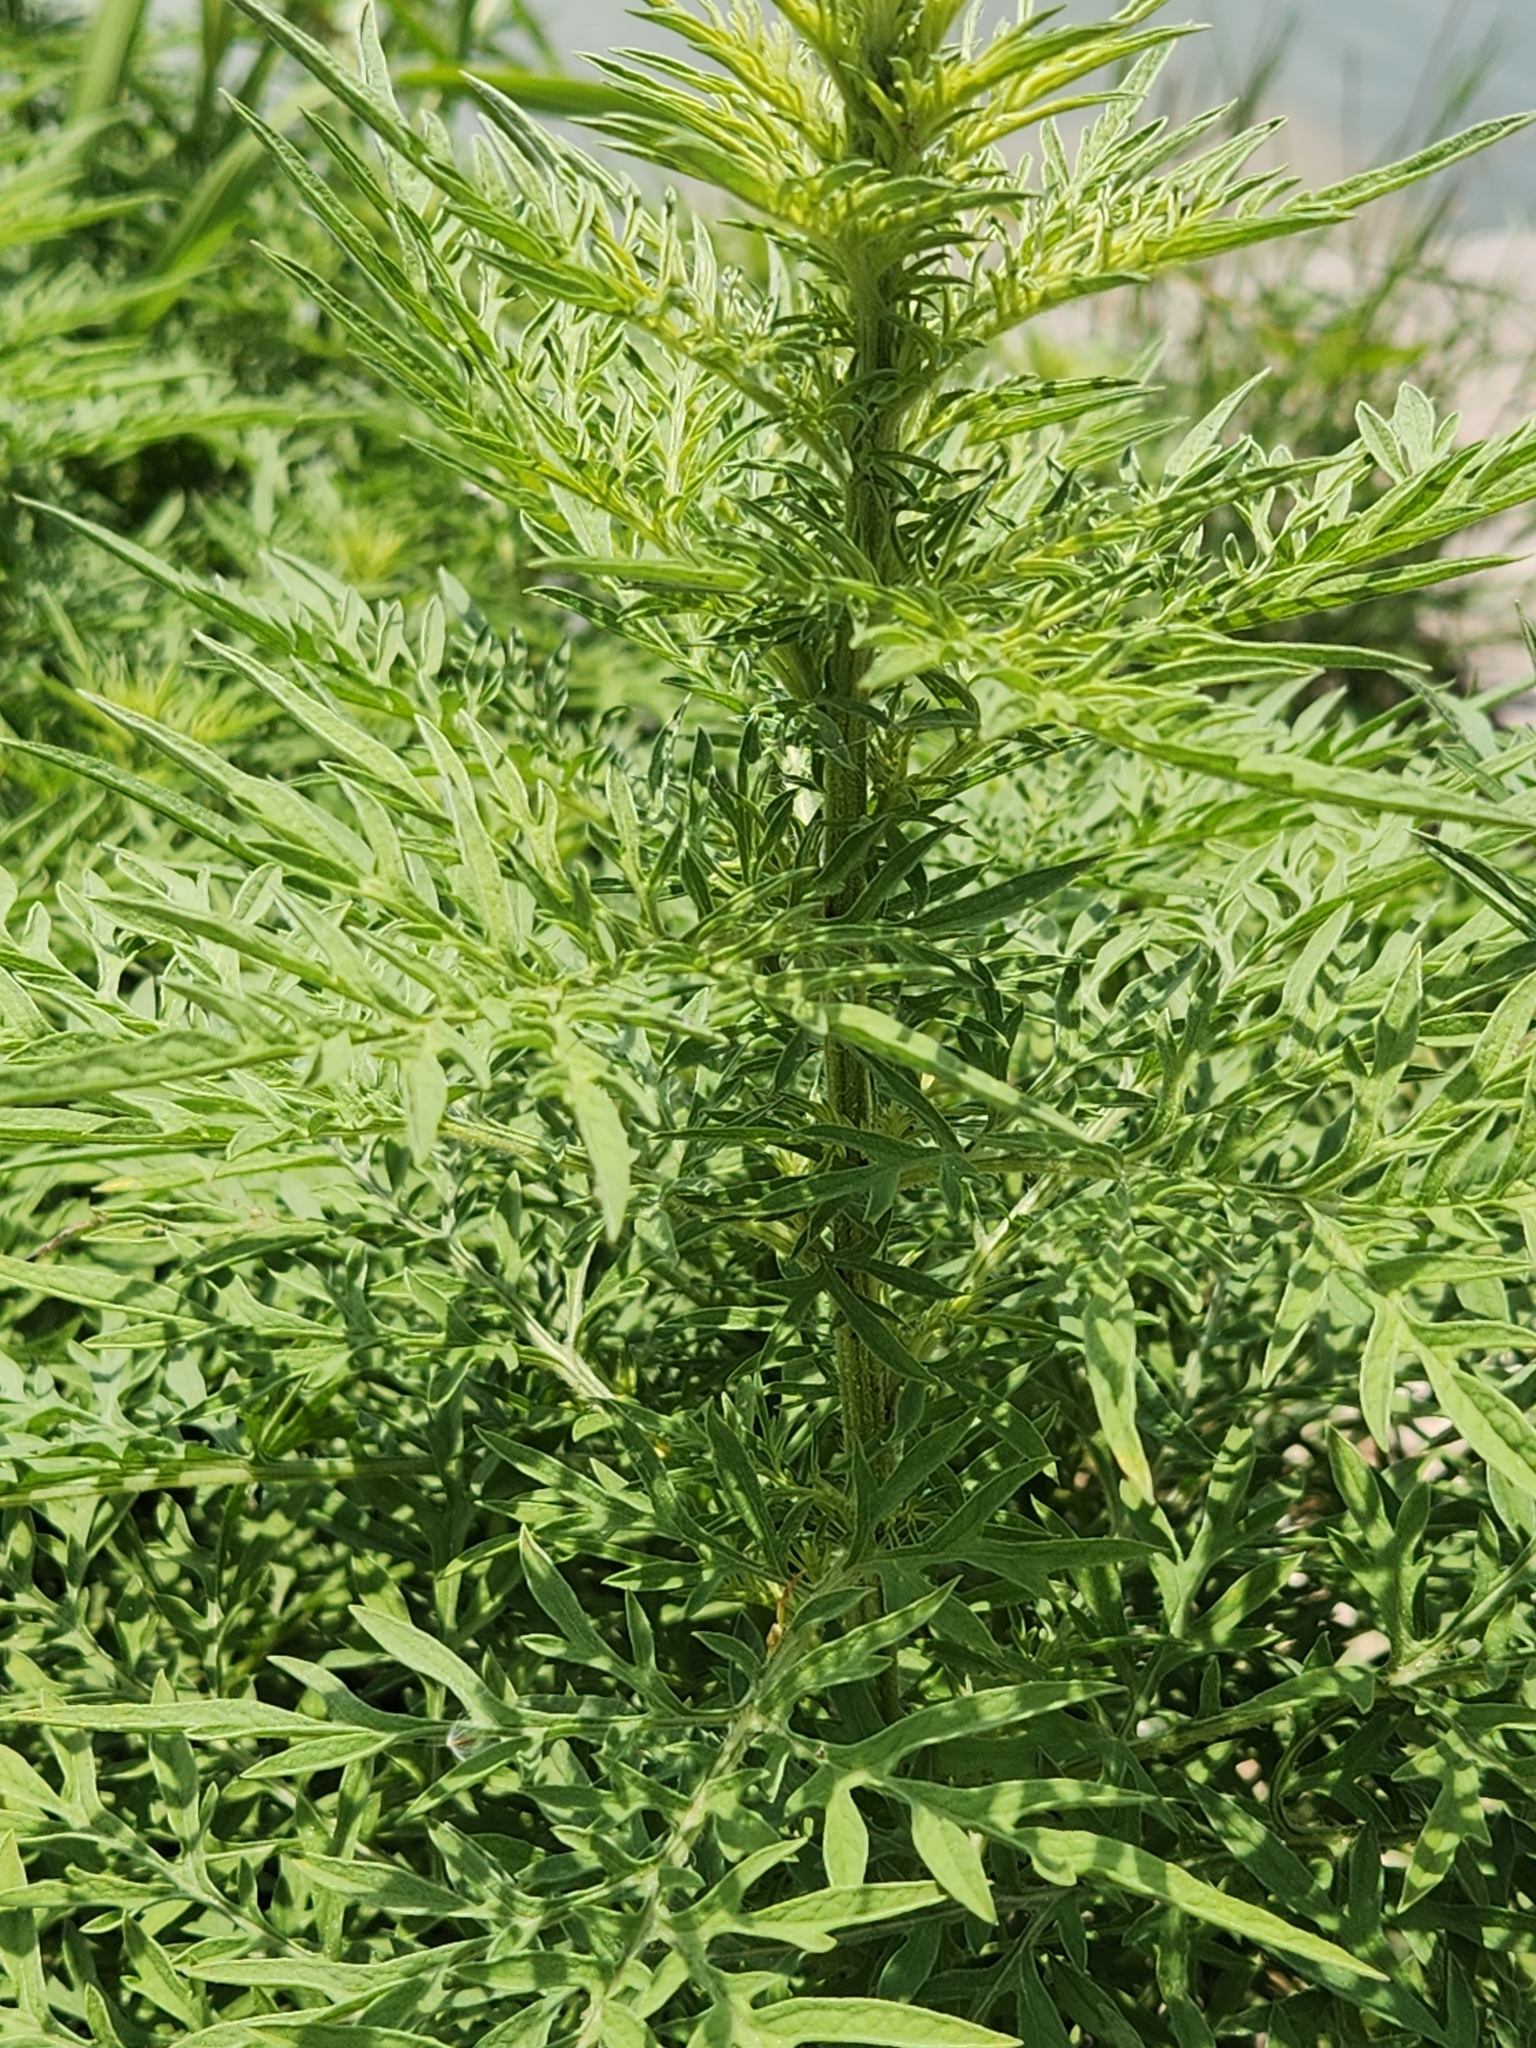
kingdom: Plantae
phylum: Tracheophyta
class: Magnoliopsida
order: Asterales
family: Asteraceae
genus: Ambrosia
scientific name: Ambrosia psilostachya
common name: Perennial ragweed
